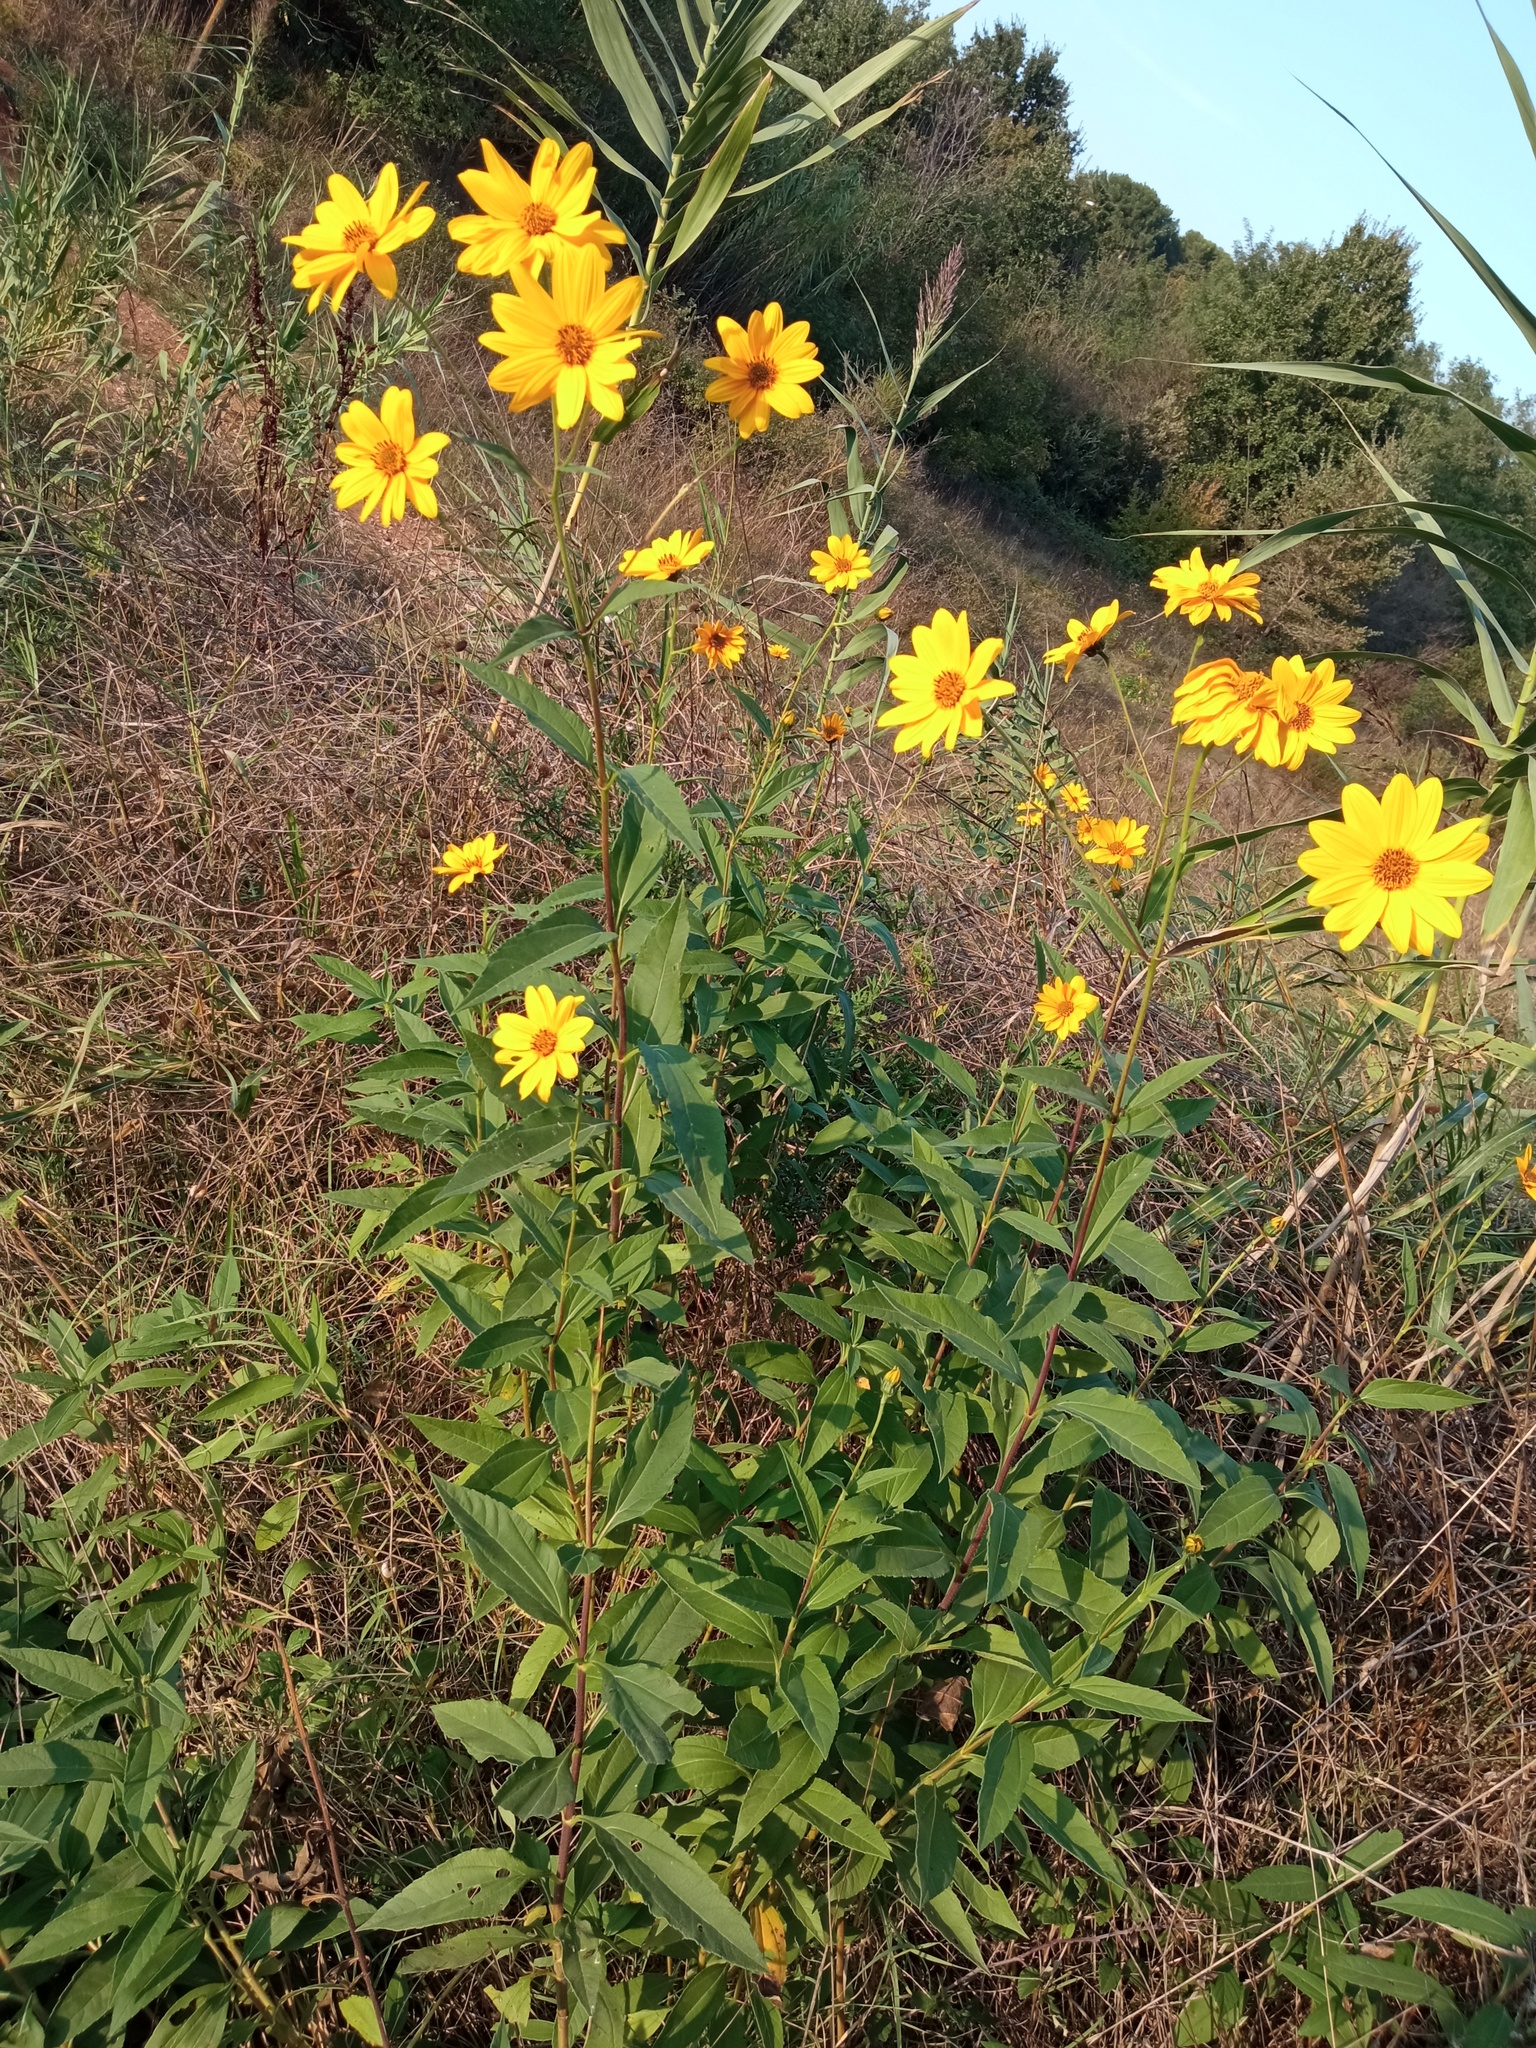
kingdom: Plantae
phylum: Tracheophyta
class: Magnoliopsida
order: Asterales
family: Asteraceae
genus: Helianthus
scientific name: Helianthus tuberosus
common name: Jerusalem artichoke
